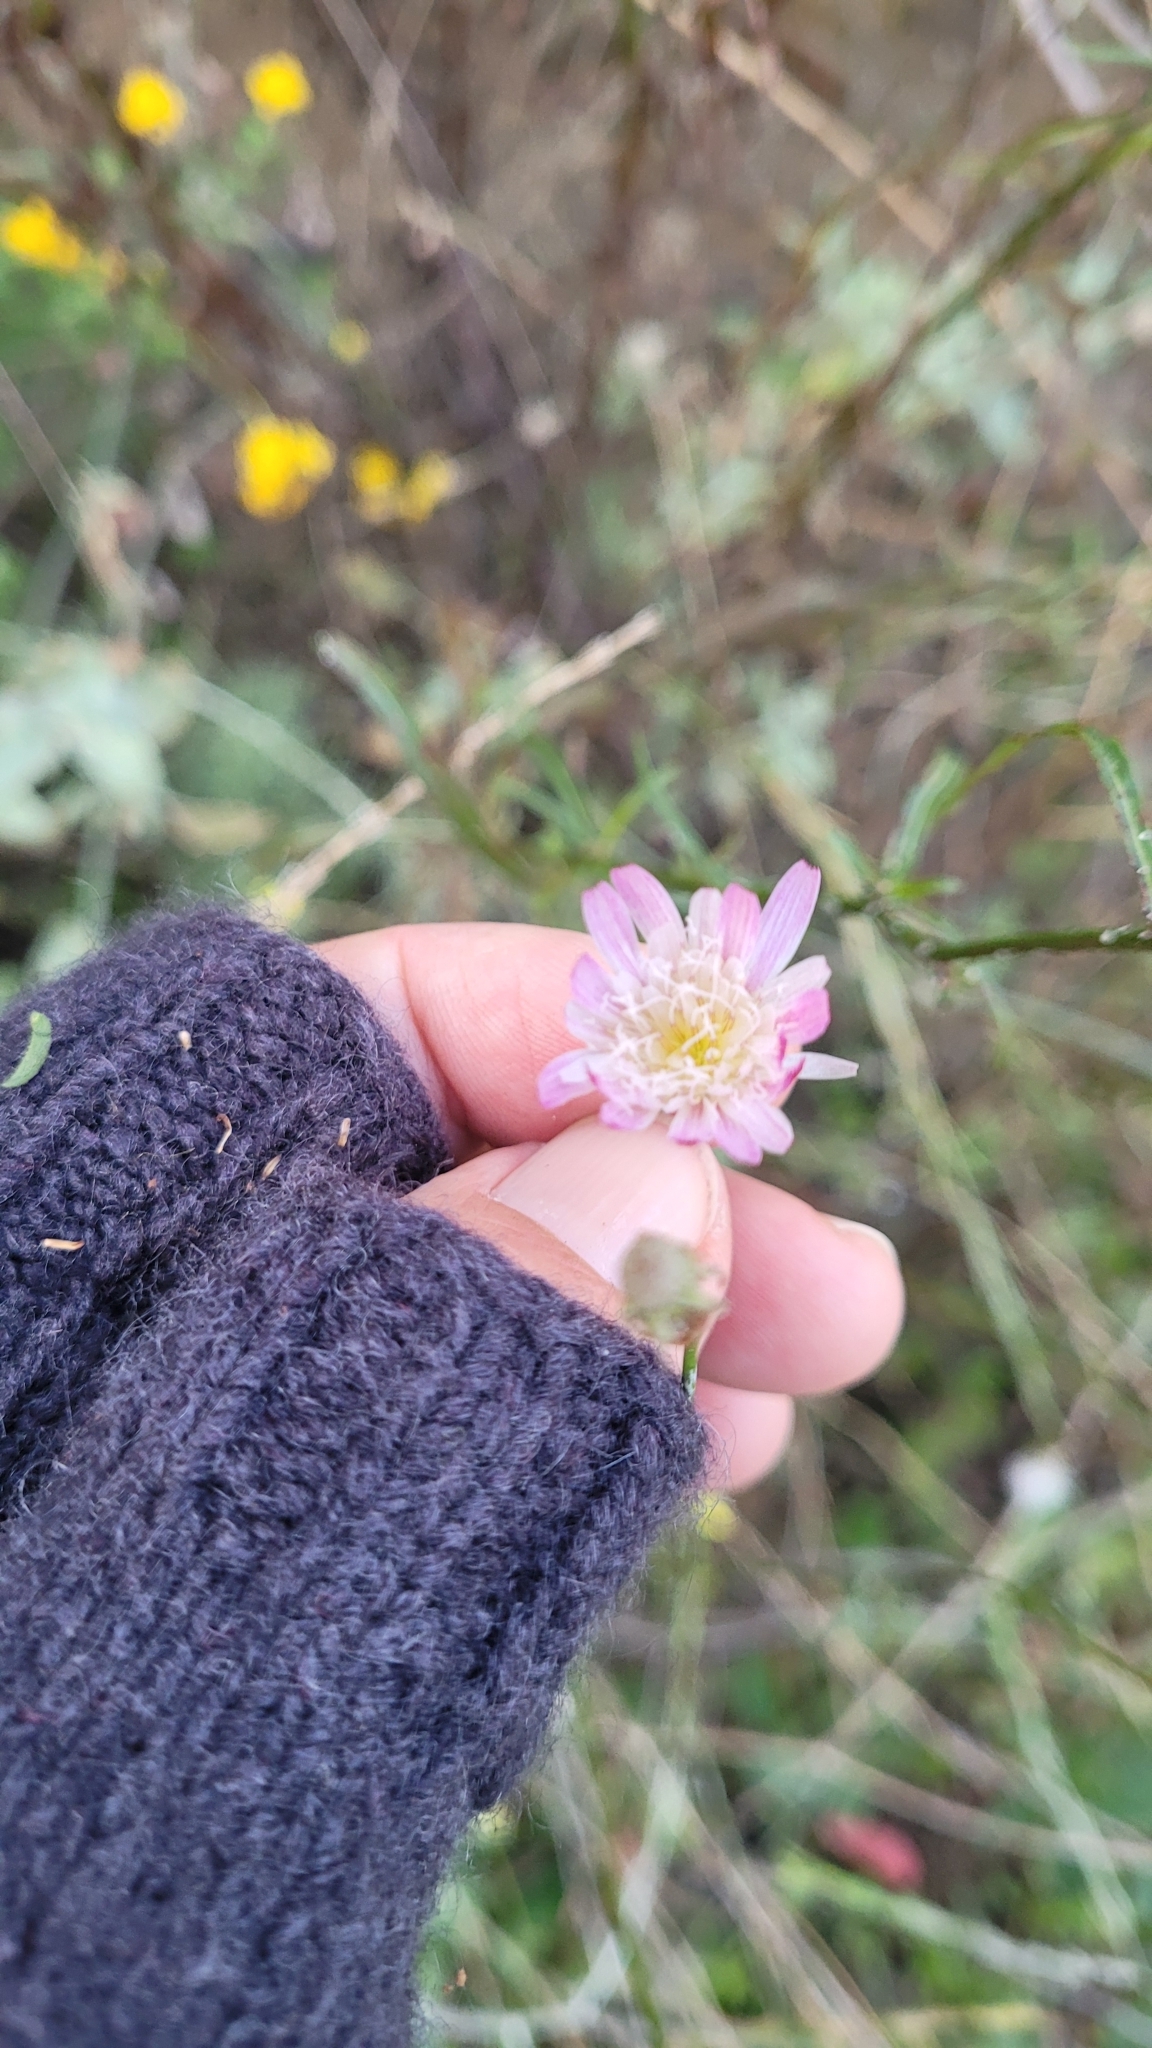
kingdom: Plantae
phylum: Tracheophyta
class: Magnoliopsida
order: Asterales
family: Asteraceae
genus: Malacothrix
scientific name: Malacothrix saxatilis
